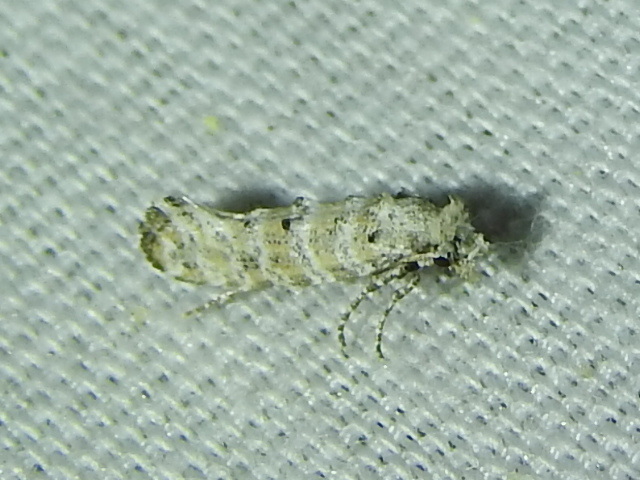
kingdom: Animalia
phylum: Arthropoda
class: Insecta
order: Lepidoptera
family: Tineidae
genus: Xylesthia
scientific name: Xylesthia albicans
